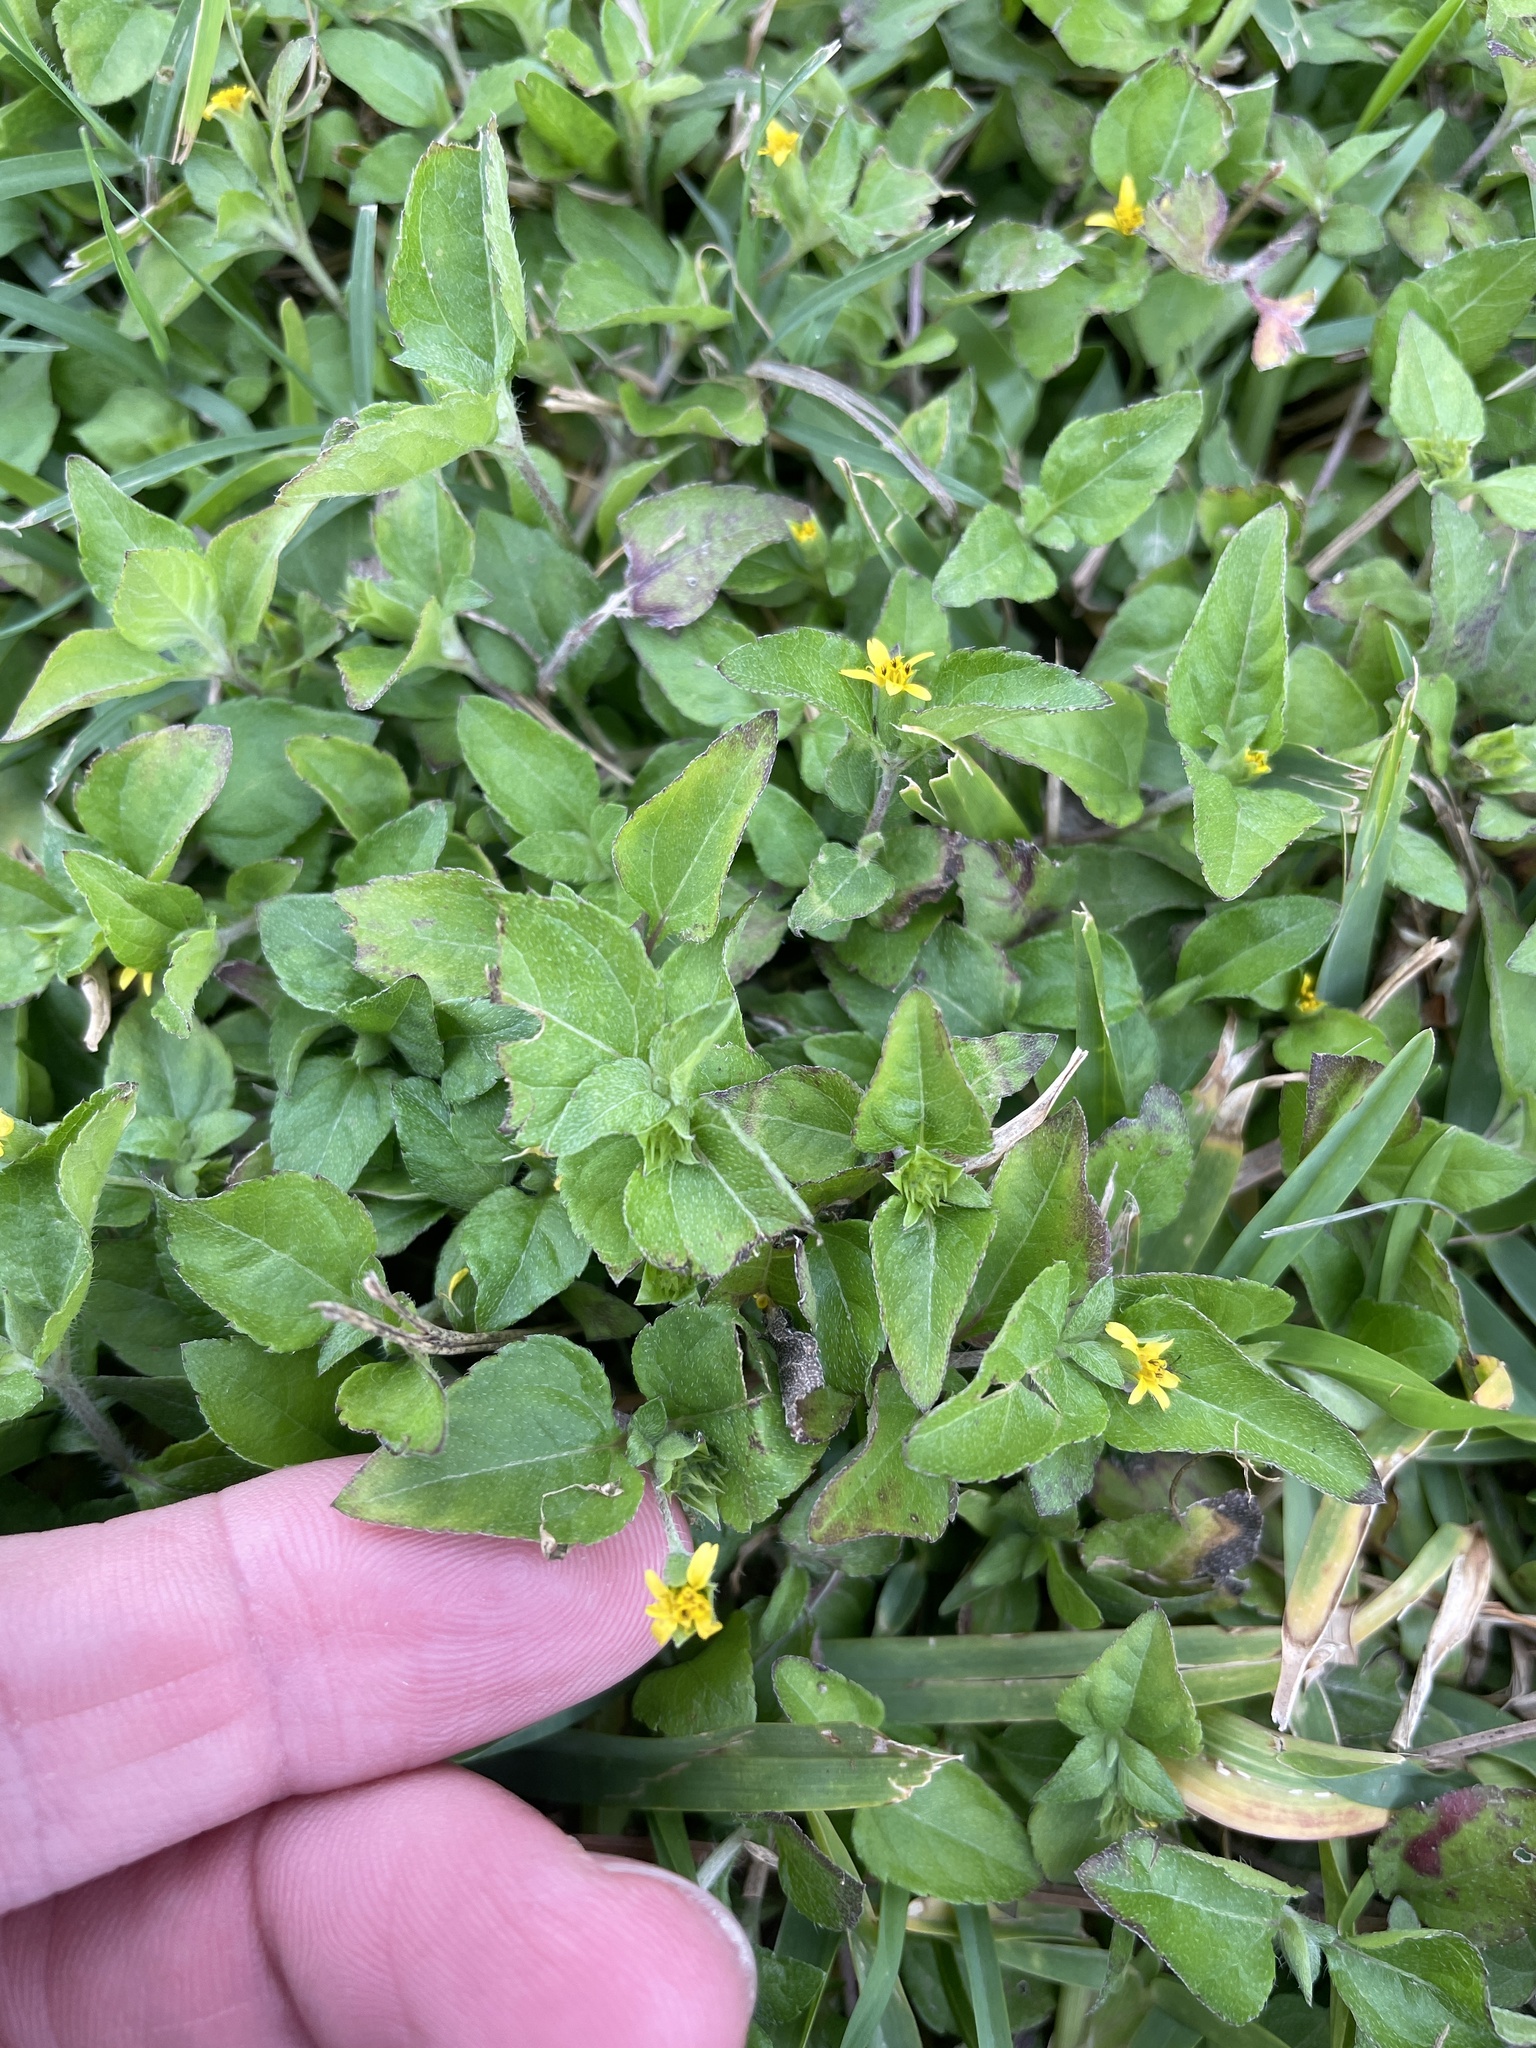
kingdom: Plantae
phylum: Tracheophyta
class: Magnoliopsida
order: Asterales
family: Asteraceae
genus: Calyptocarpus
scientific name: Calyptocarpus vialis
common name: Straggler daisy
